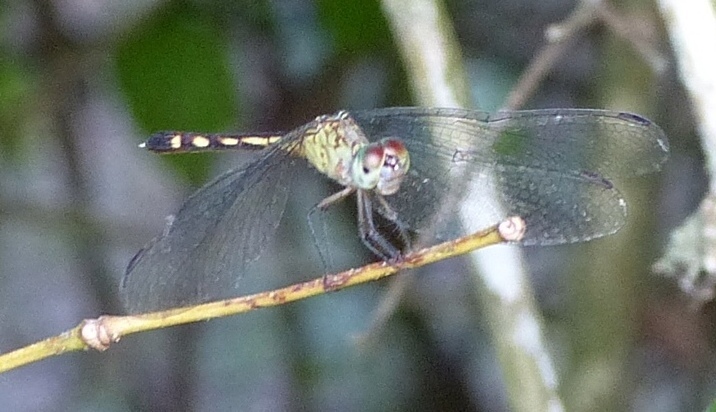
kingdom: Animalia
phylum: Arthropoda
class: Insecta
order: Odonata
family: Libellulidae
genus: Anatya
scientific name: Anatya januaria
